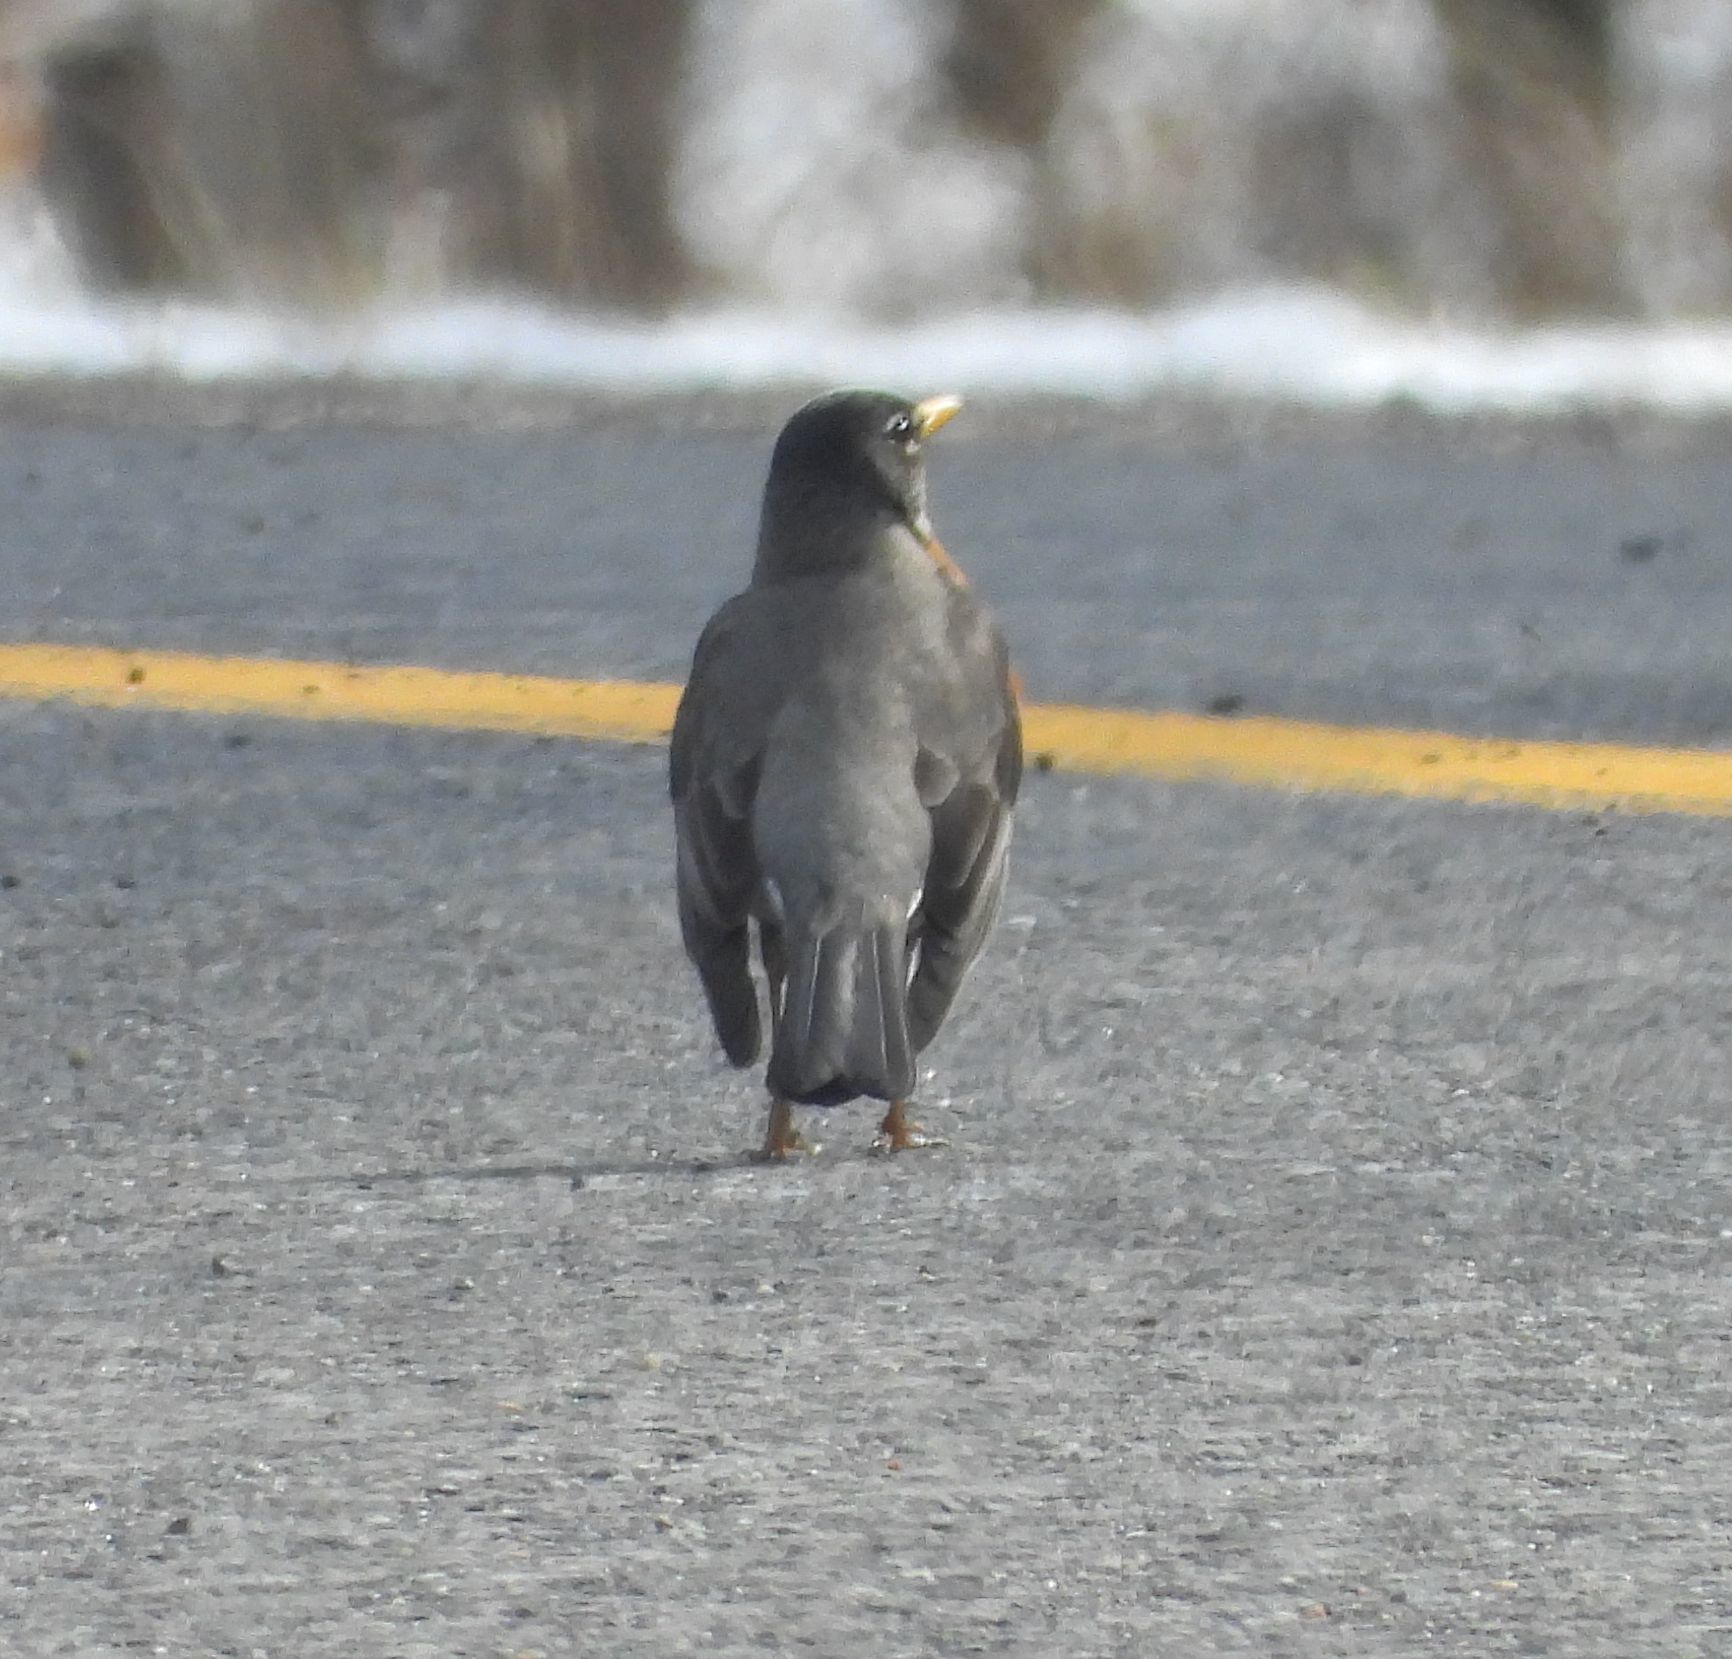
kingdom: Animalia
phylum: Chordata
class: Aves
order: Passeriformes
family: Turdidae
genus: Turdus
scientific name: Turdus migratorius
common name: American robin
